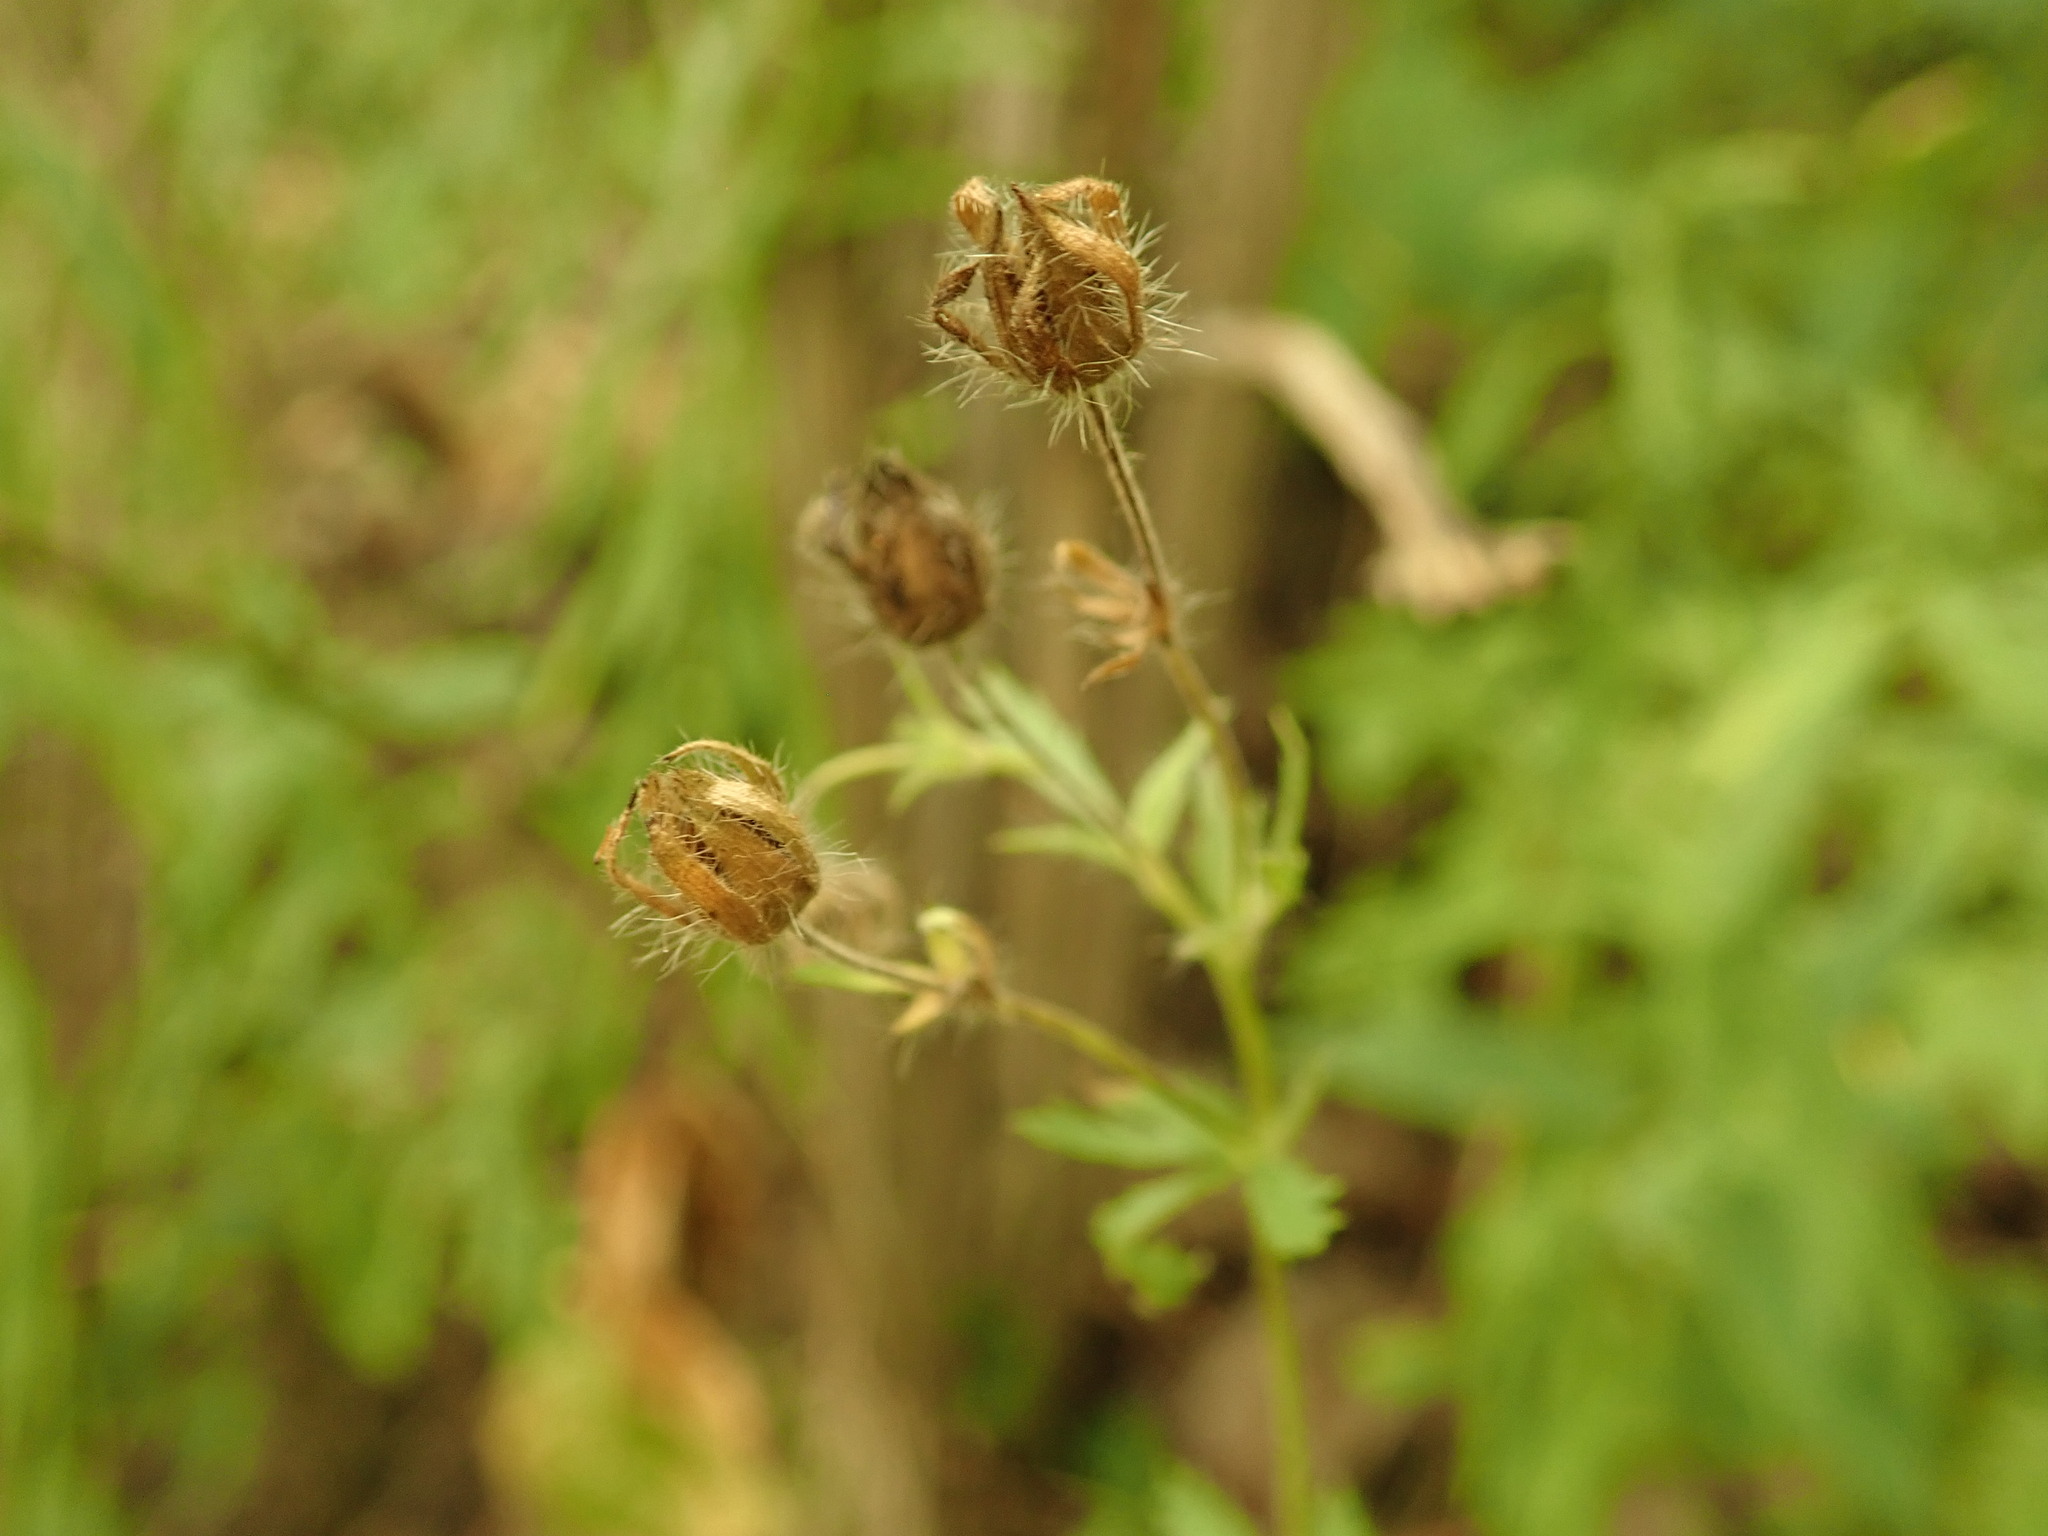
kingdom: Plantae
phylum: Tracheophyta
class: Magnoliopsida
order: Rosales
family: Rosaceae
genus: Potentilla
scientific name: Potentilla recta
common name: Sulphur cinquefoil
